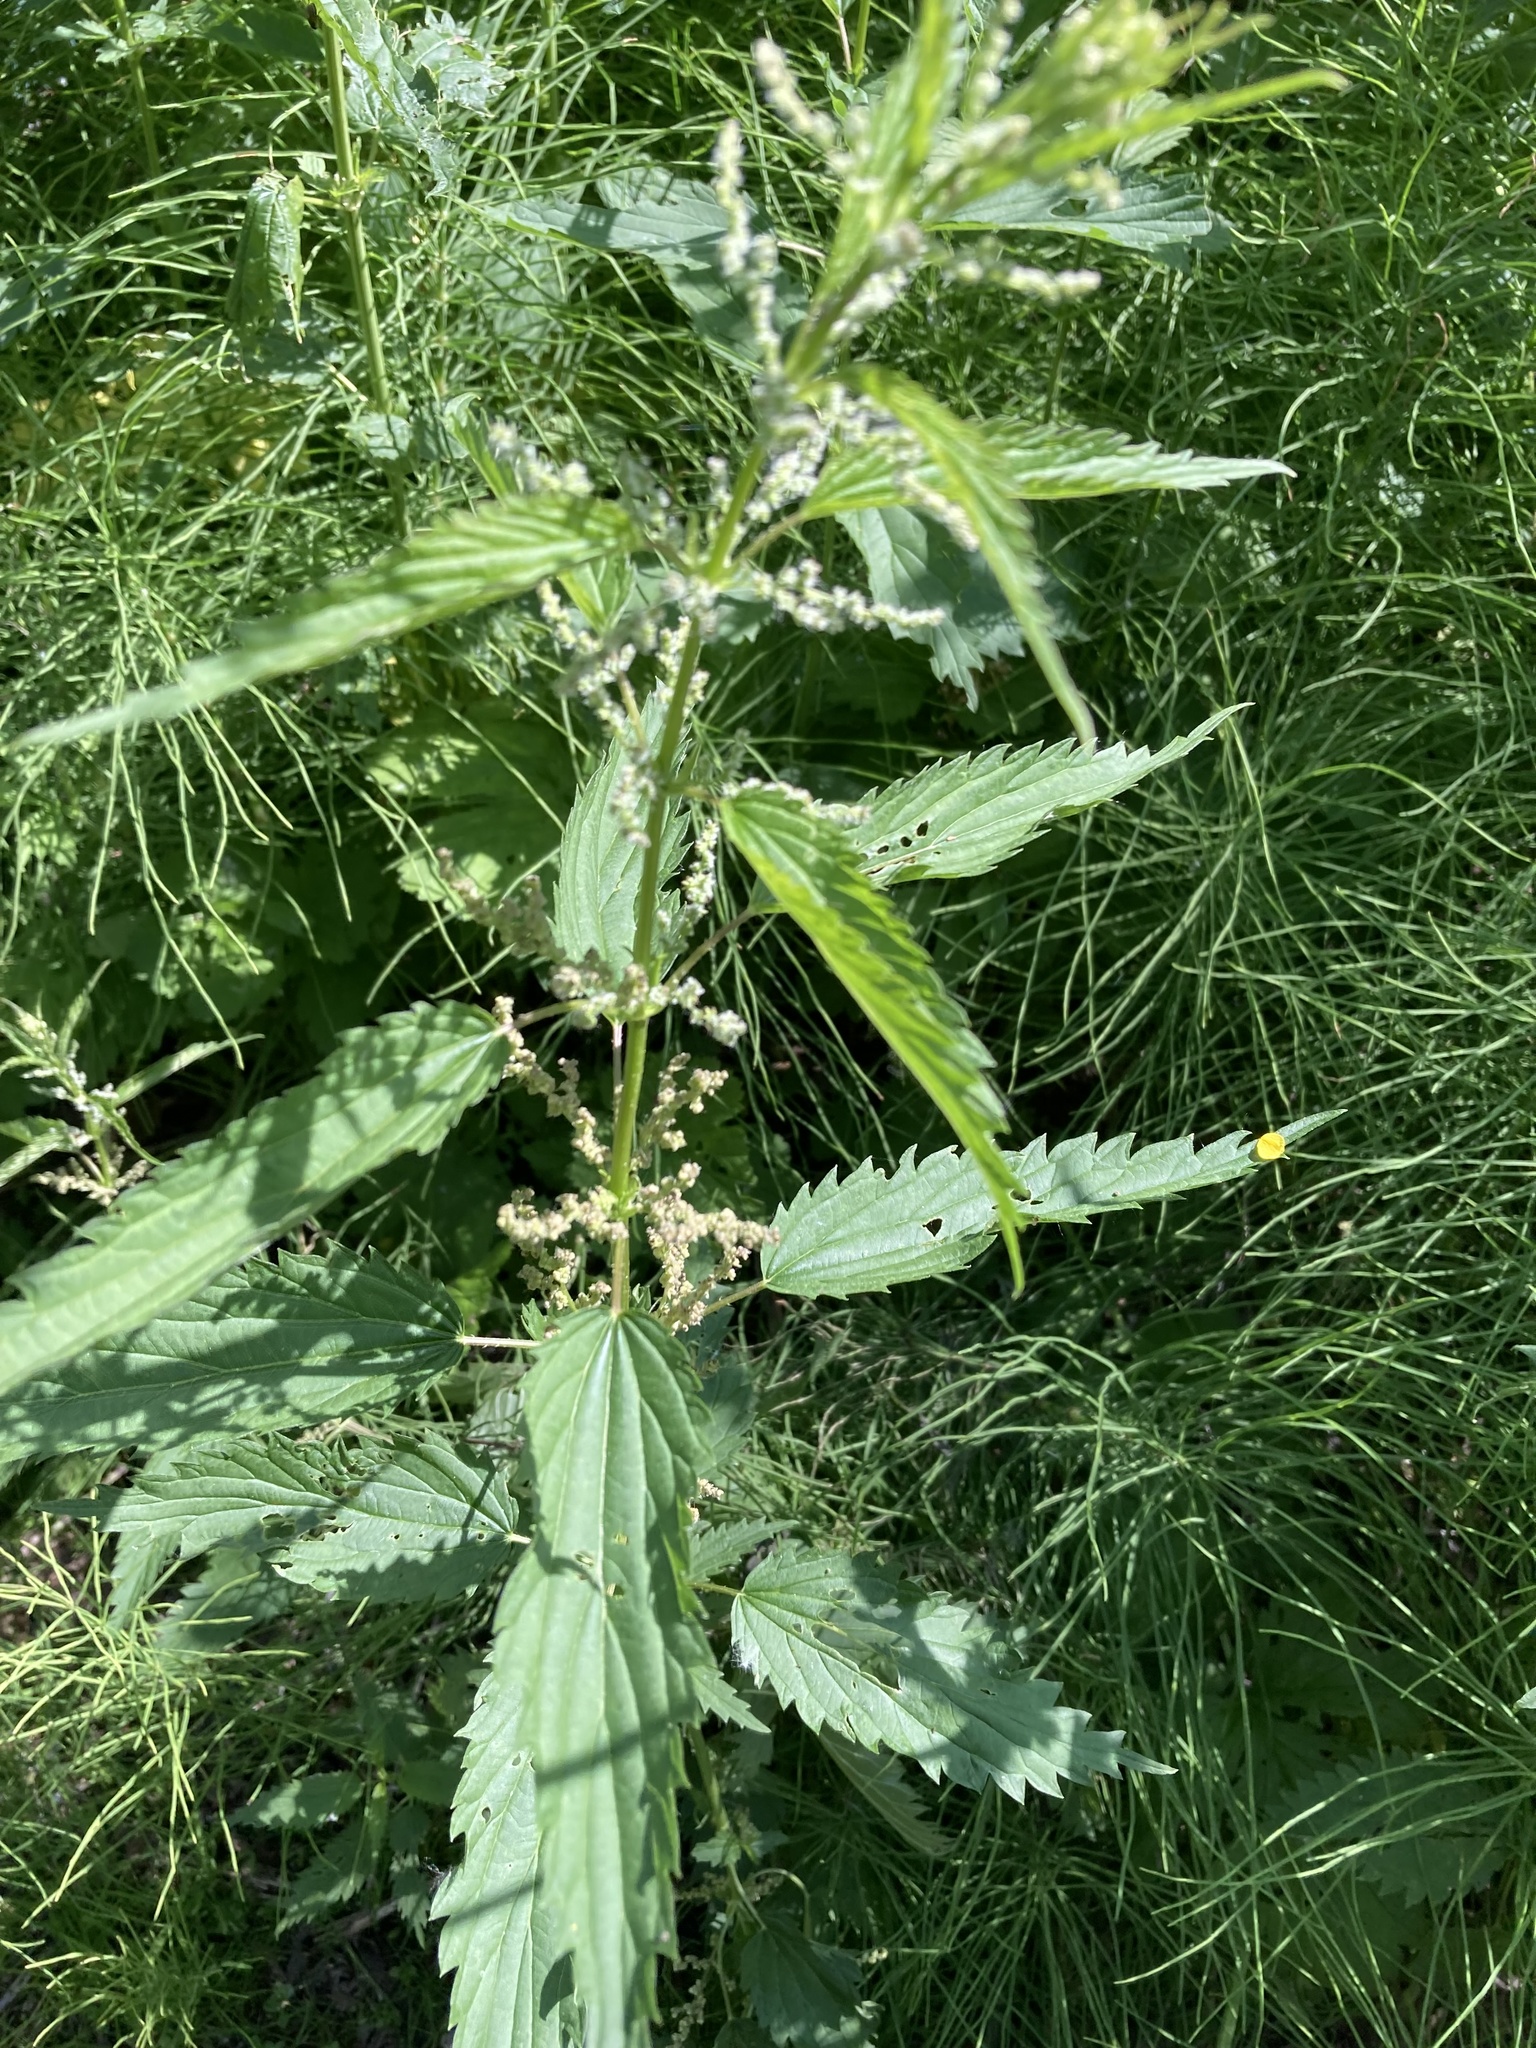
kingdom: Plantae
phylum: Tracheophyta
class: Magnoliopsida
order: Rosales
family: Urticaceae
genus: Urtica
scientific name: Urtica gracilis
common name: Slender stinging nettle
